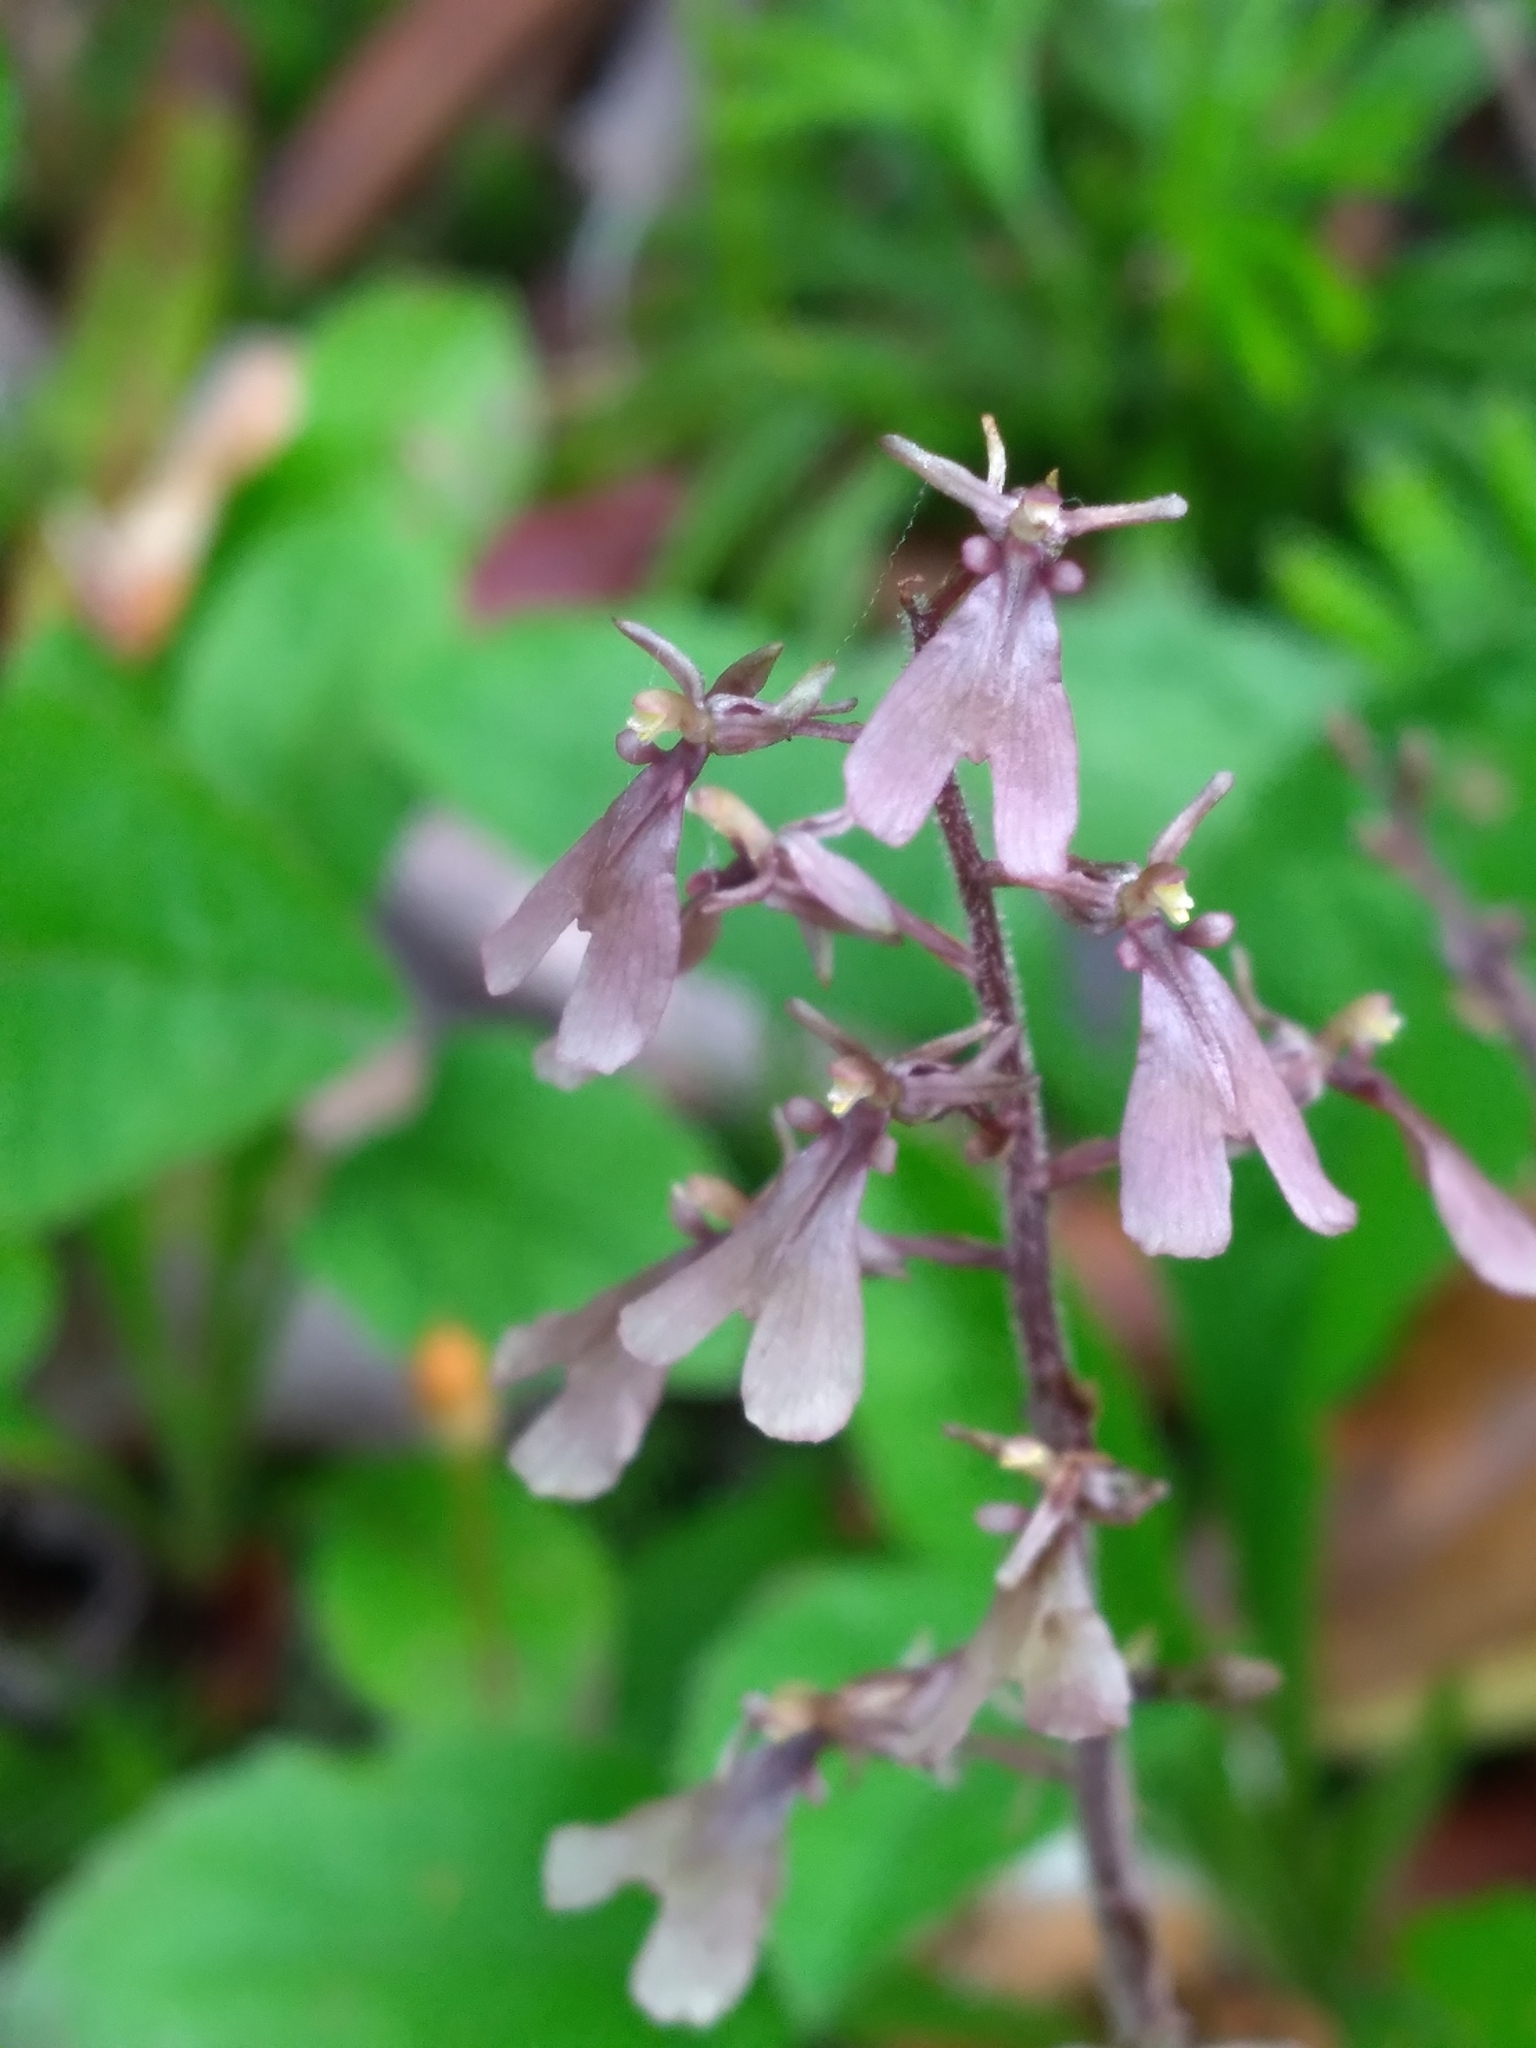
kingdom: Plantae
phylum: Tracheophyta
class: Liliopsida
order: Asparagales
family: Orchidaceae
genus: Neottia
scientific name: Neottia smallii
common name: Kidneyleaf twayblade
